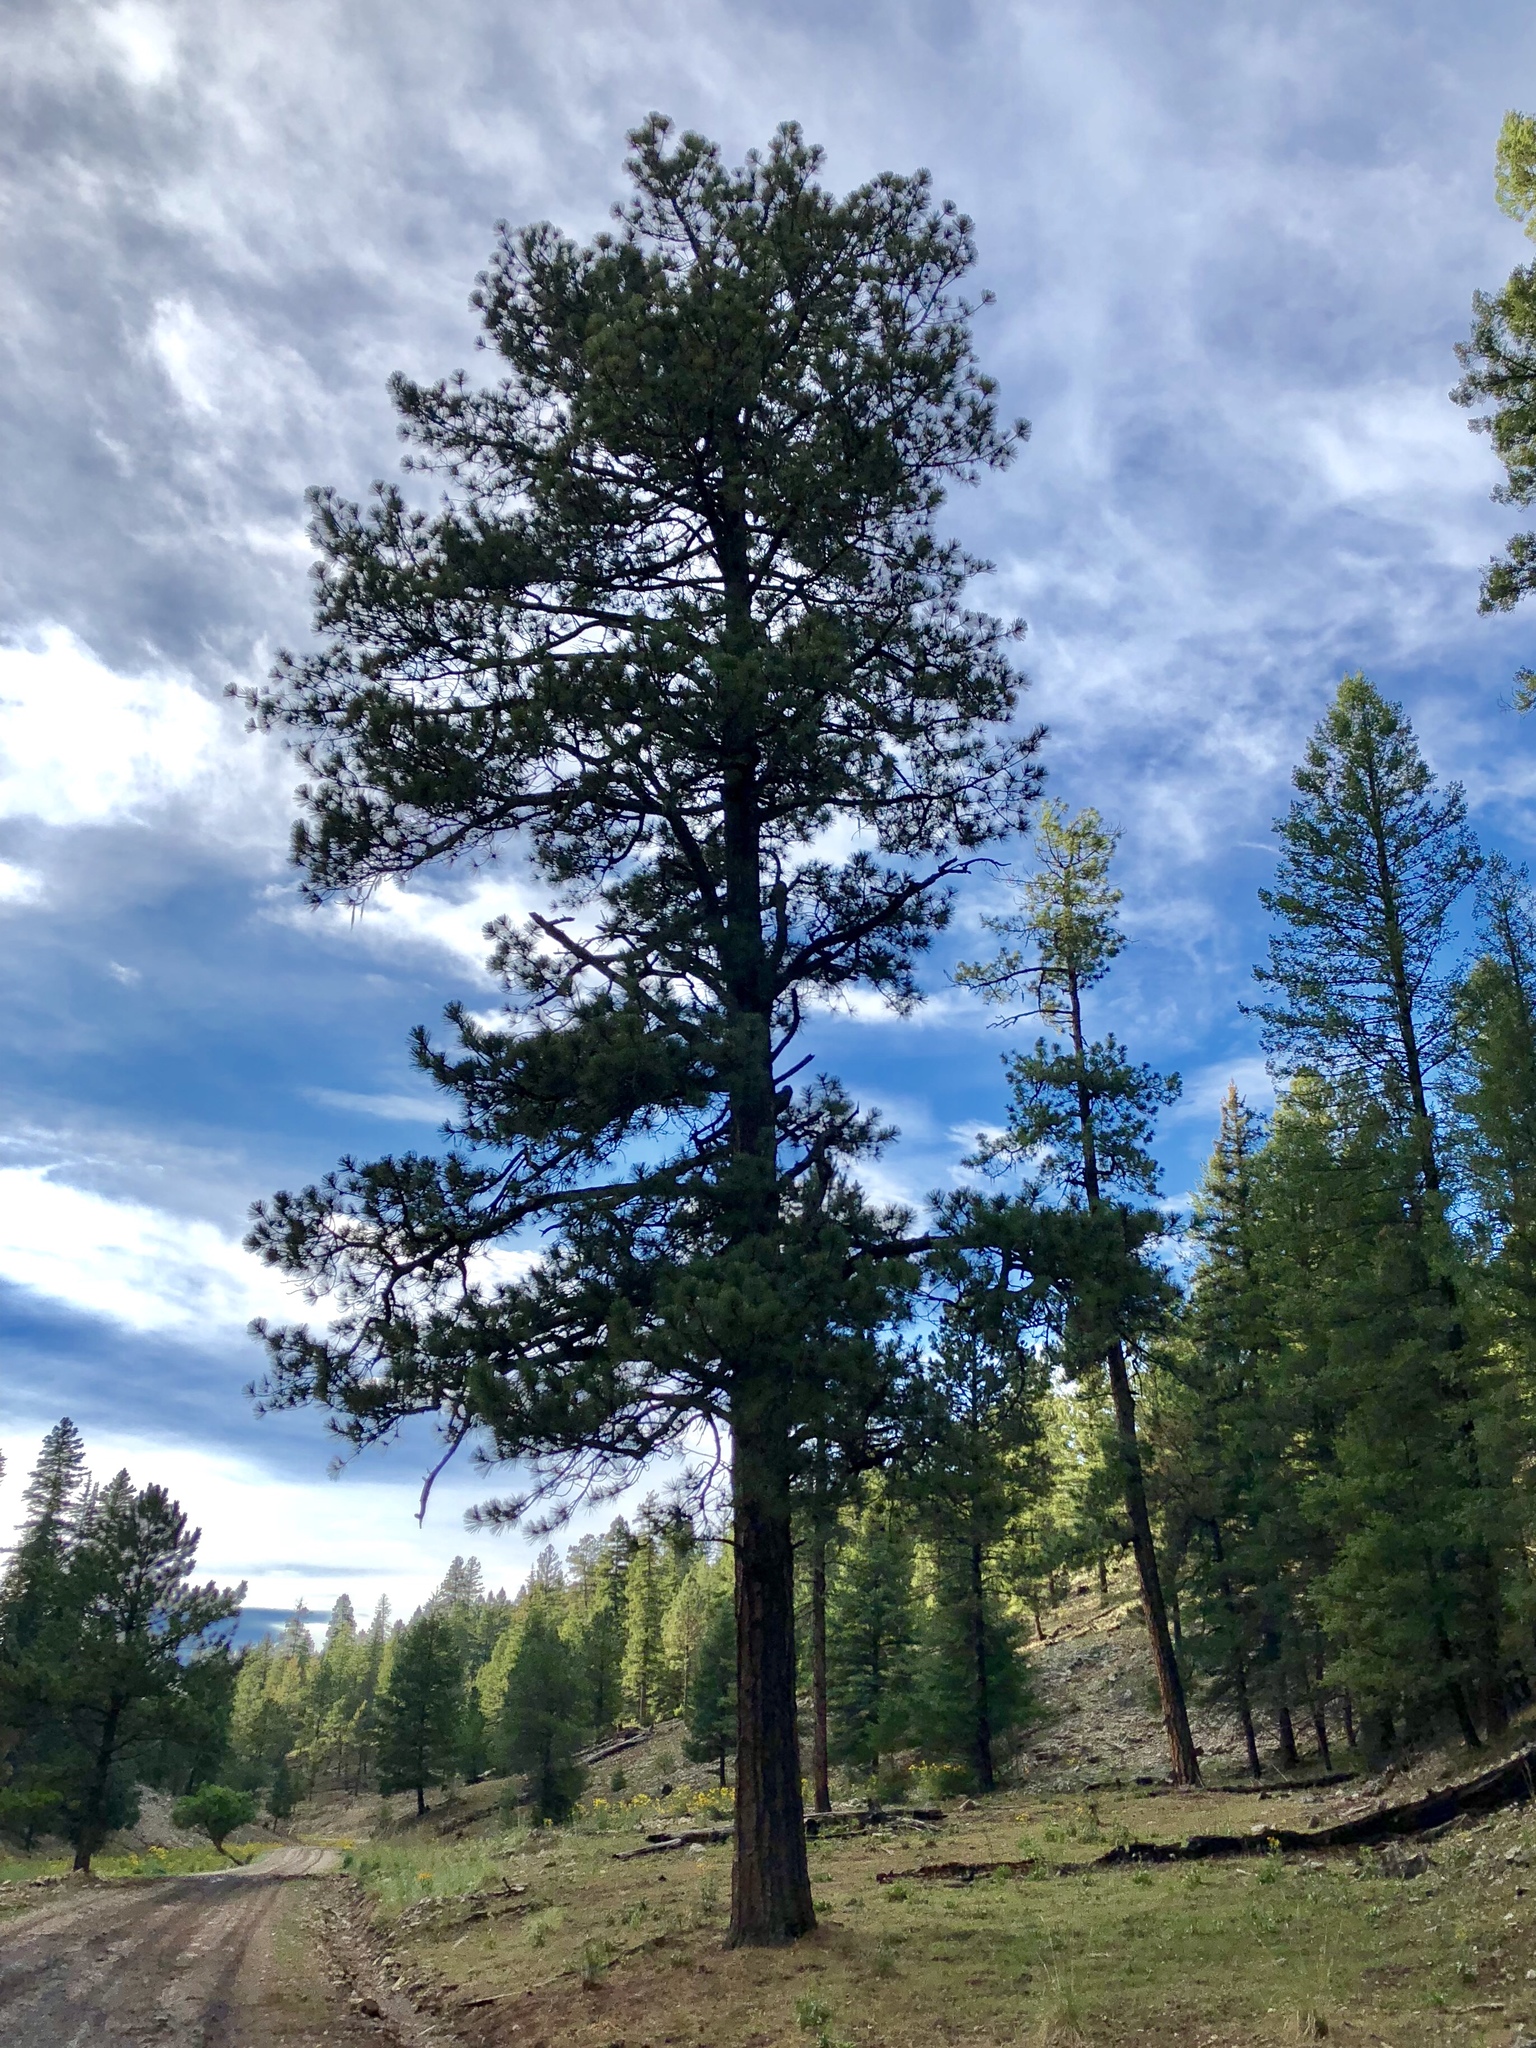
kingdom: Plantae
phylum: Tracheophyta
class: Pinopsida
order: Pinales
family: Pinaceae
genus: Pinus
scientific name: Pinus ponderosa
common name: Western yellow-pine
